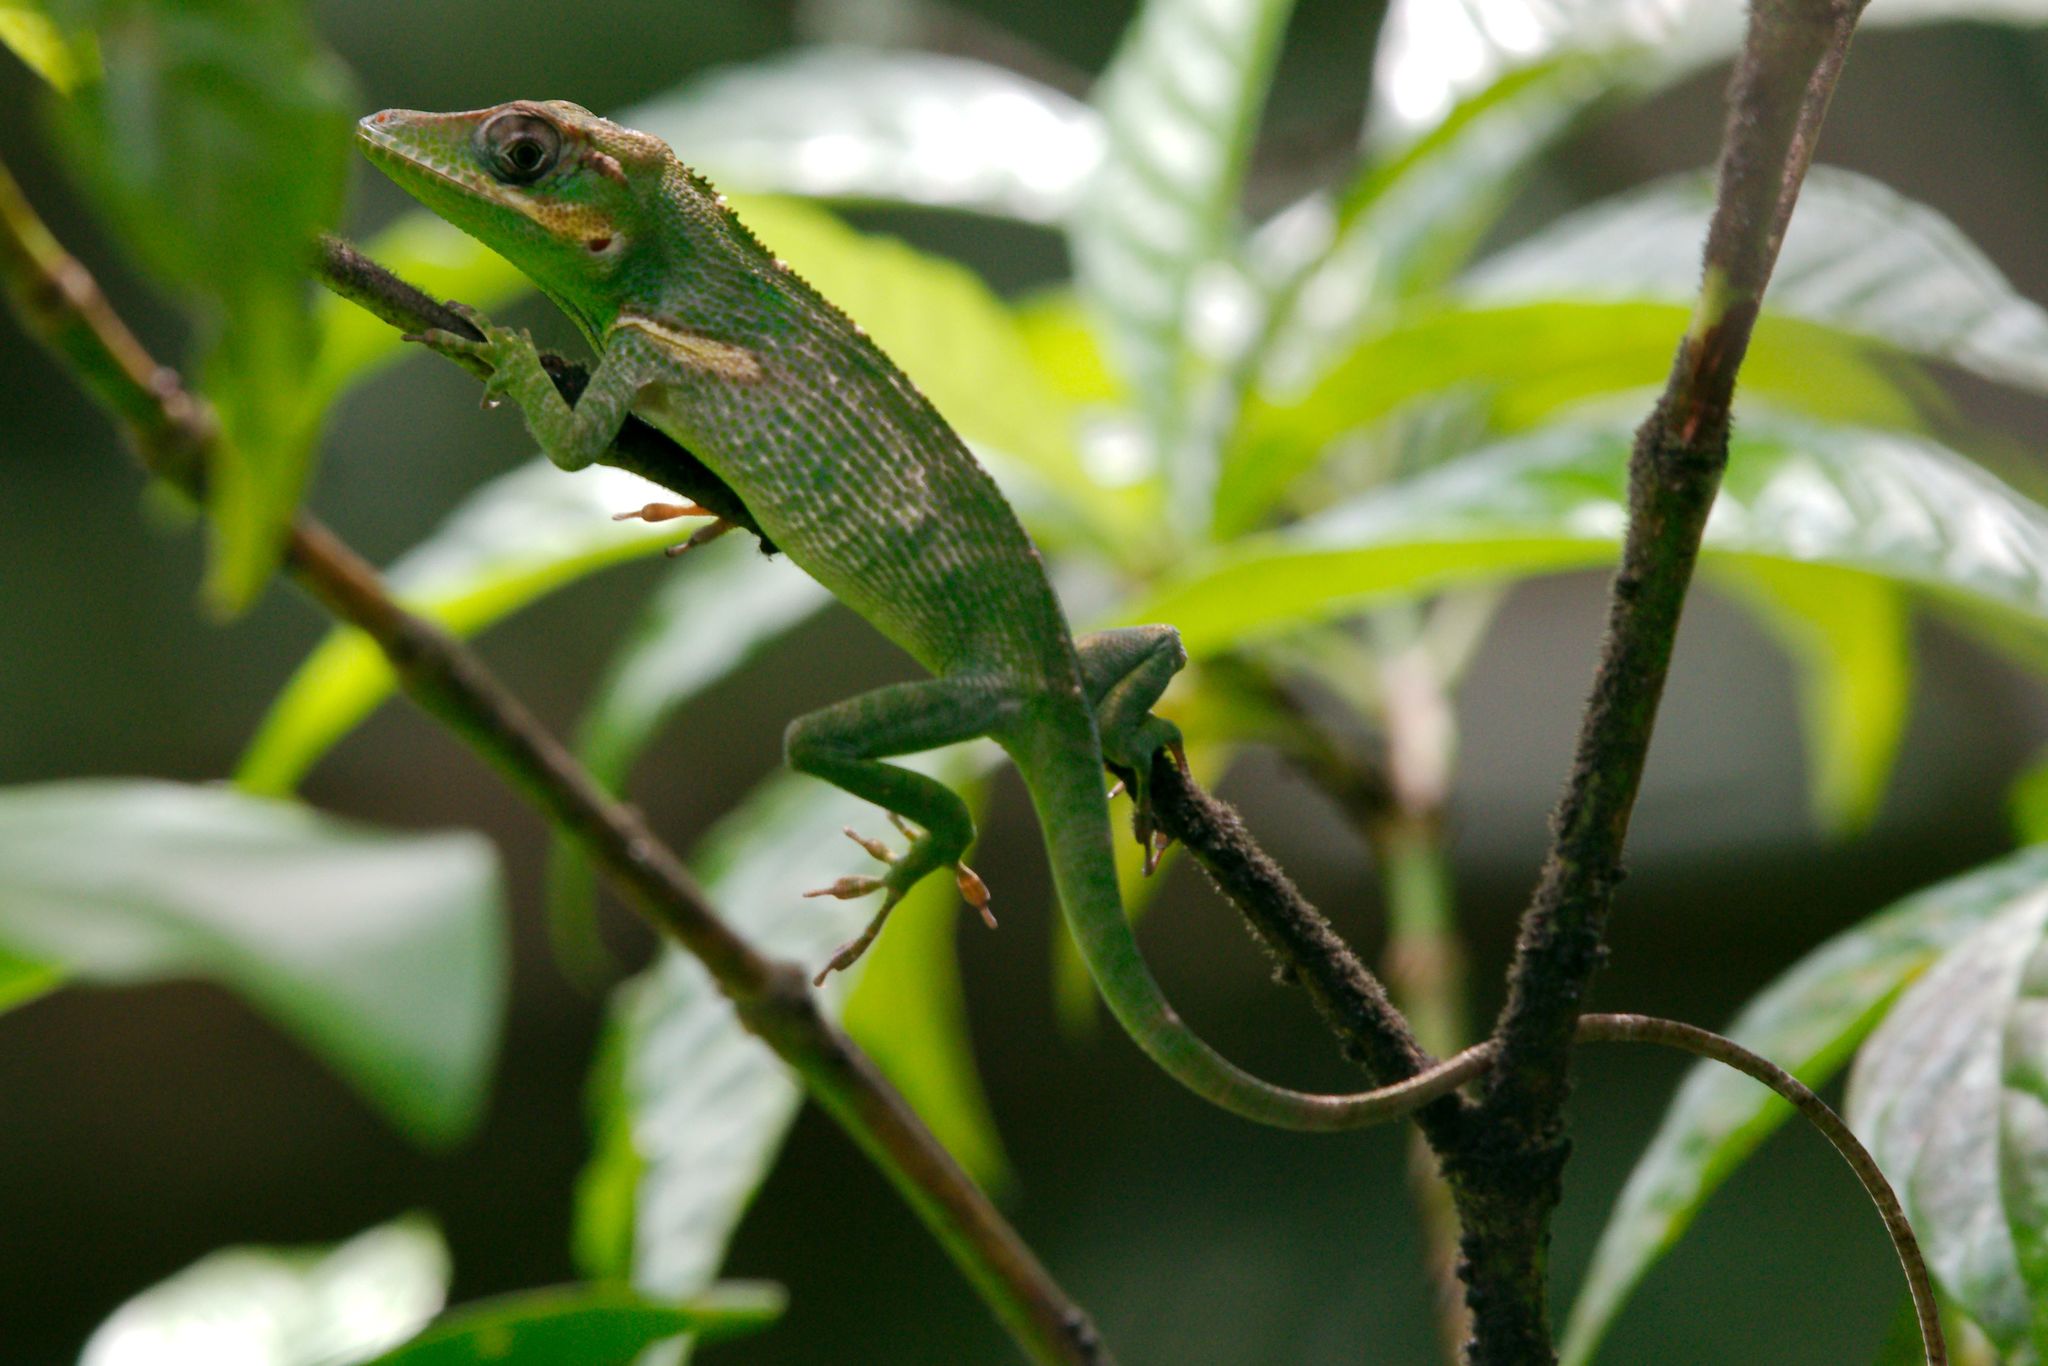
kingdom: Animalia
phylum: Chordata
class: Squamata
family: Dactyloidae
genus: Anolis
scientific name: Anolis equestris
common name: Knight anole
